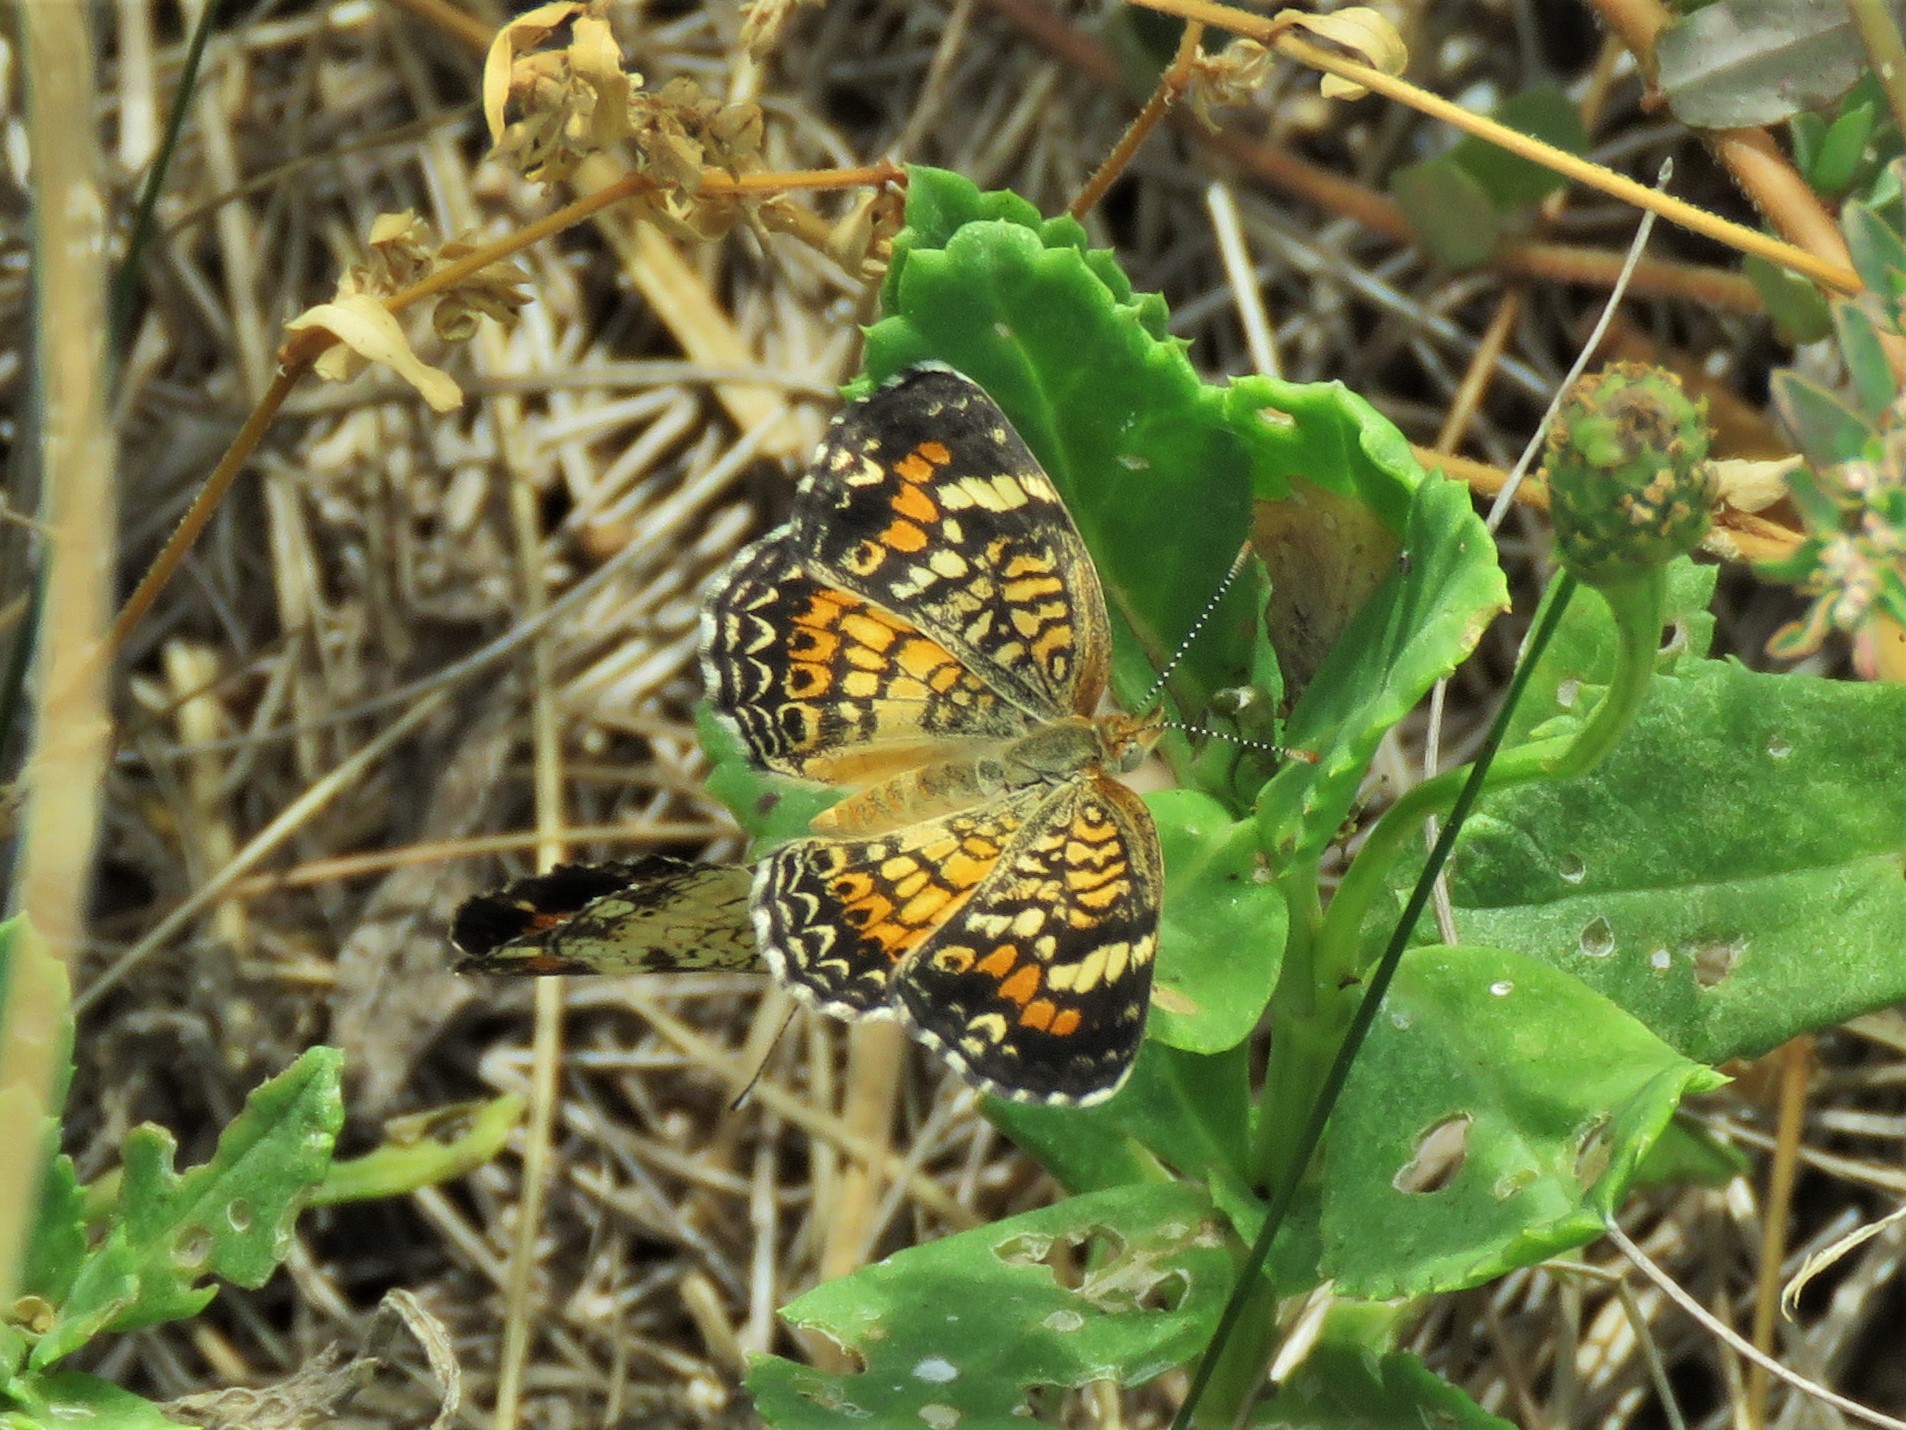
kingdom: Animalia
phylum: Arthropoda
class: Insecta
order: Lepidoptera
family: Nymphalidae
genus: Phyciodes
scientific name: Phyciodes phaon
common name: Phaon crescent
